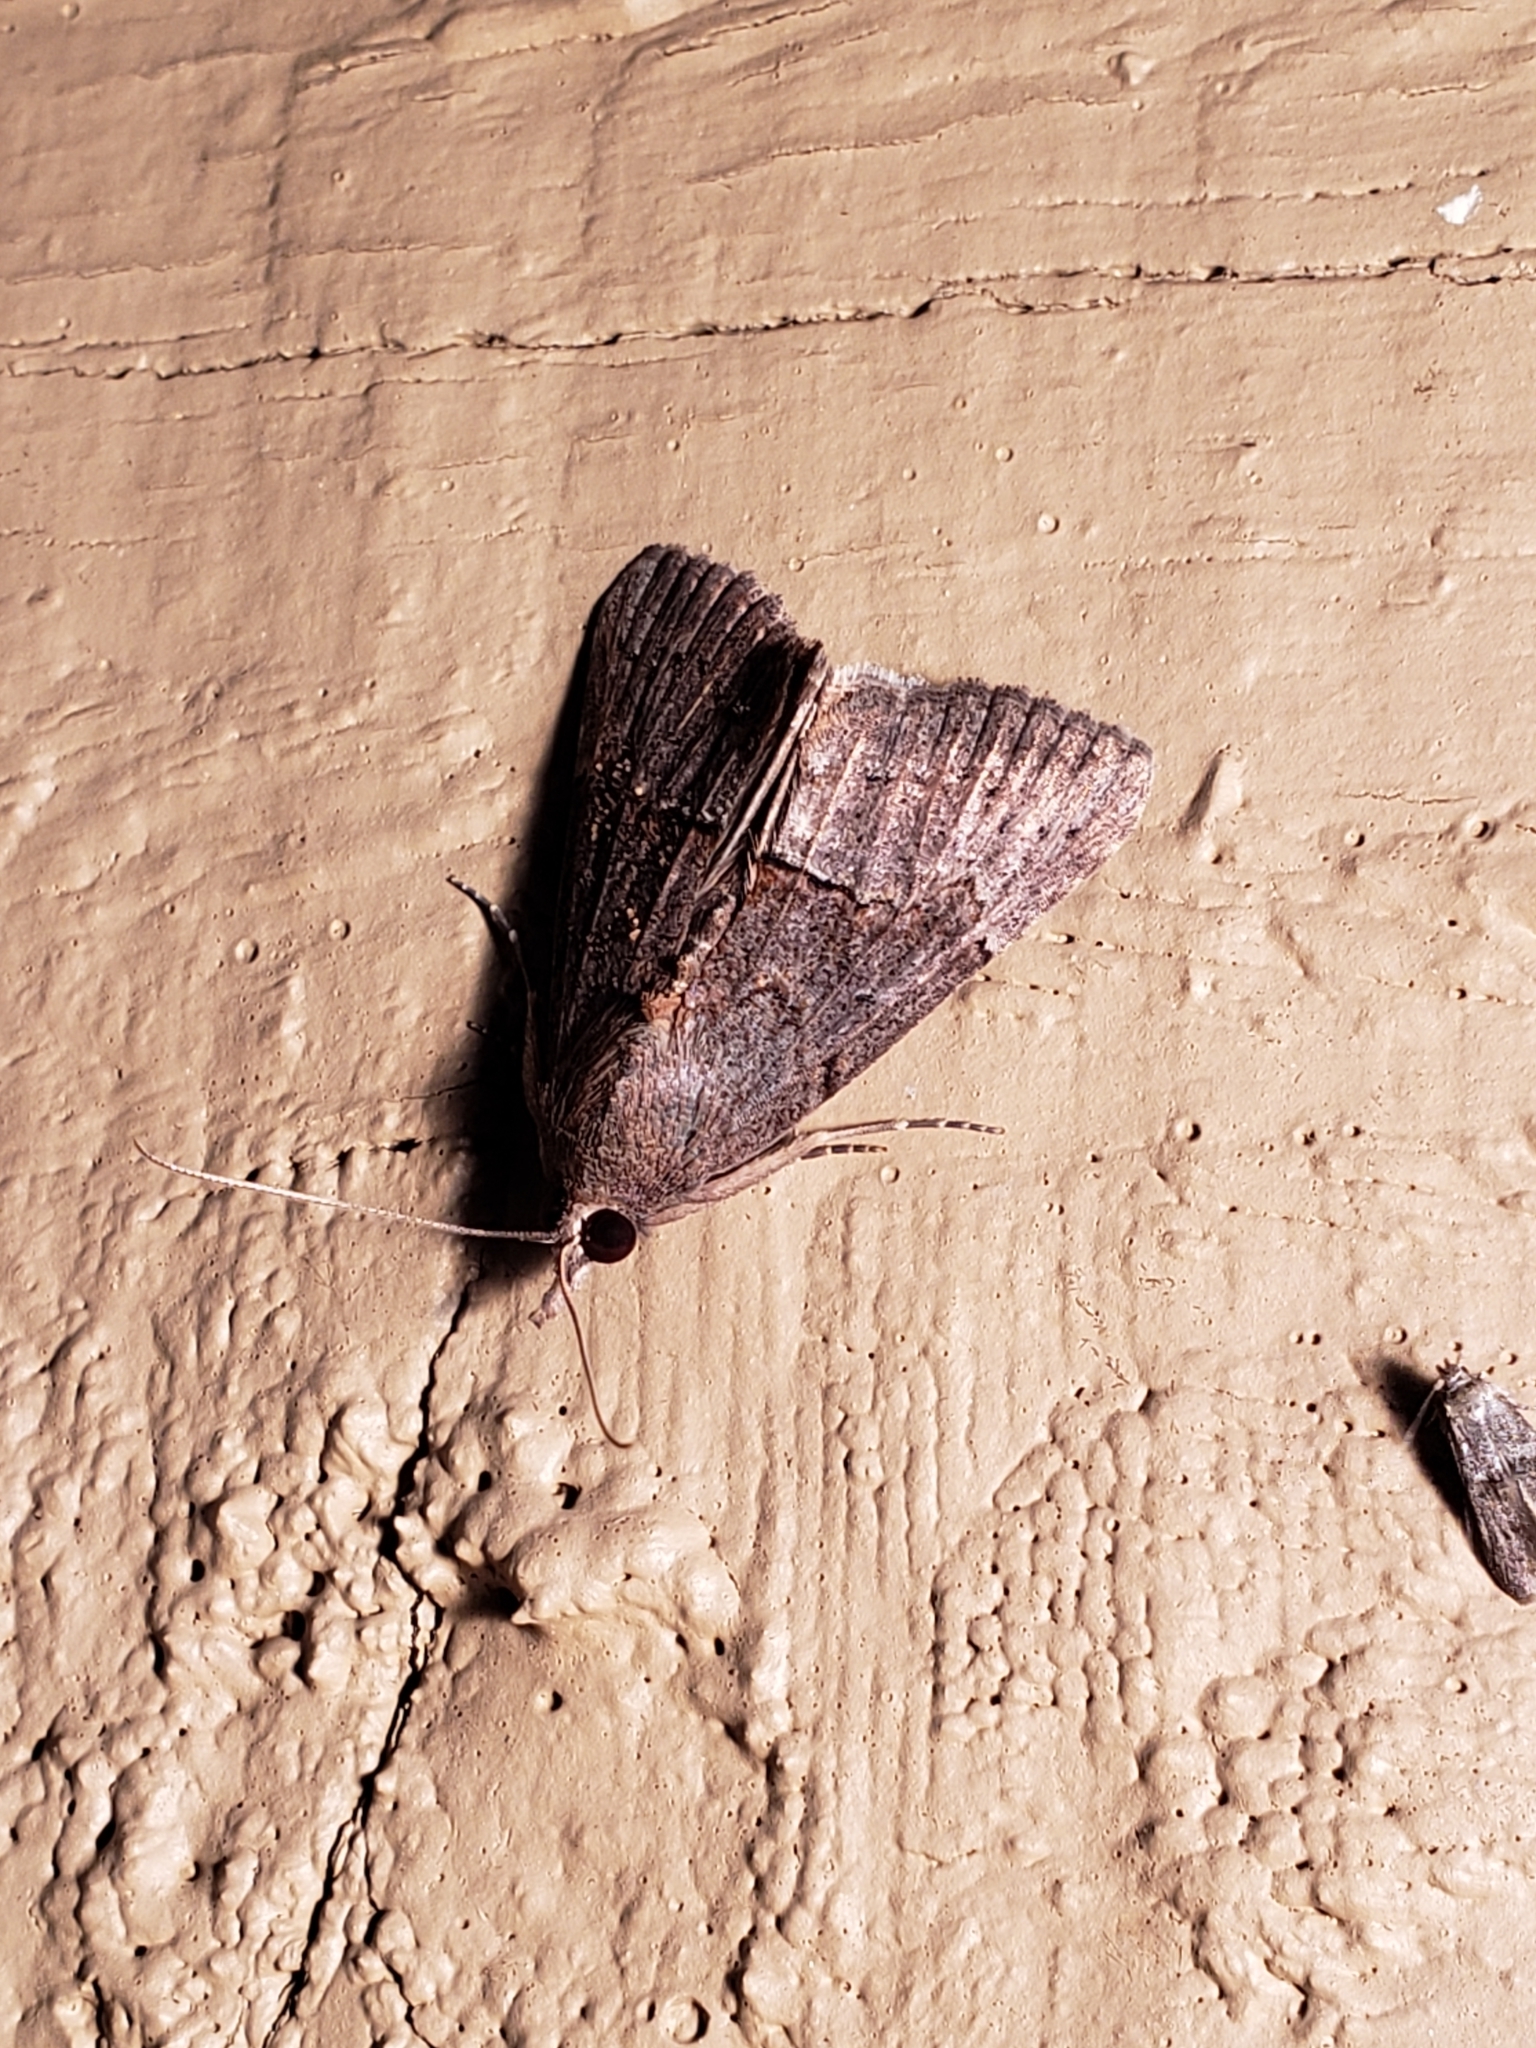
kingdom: Animalia
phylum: Arthropoda
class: Insecta
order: Lepidoptera
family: Erebidae
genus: Hypena
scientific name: Hypena scabra
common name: Green cloverworm
